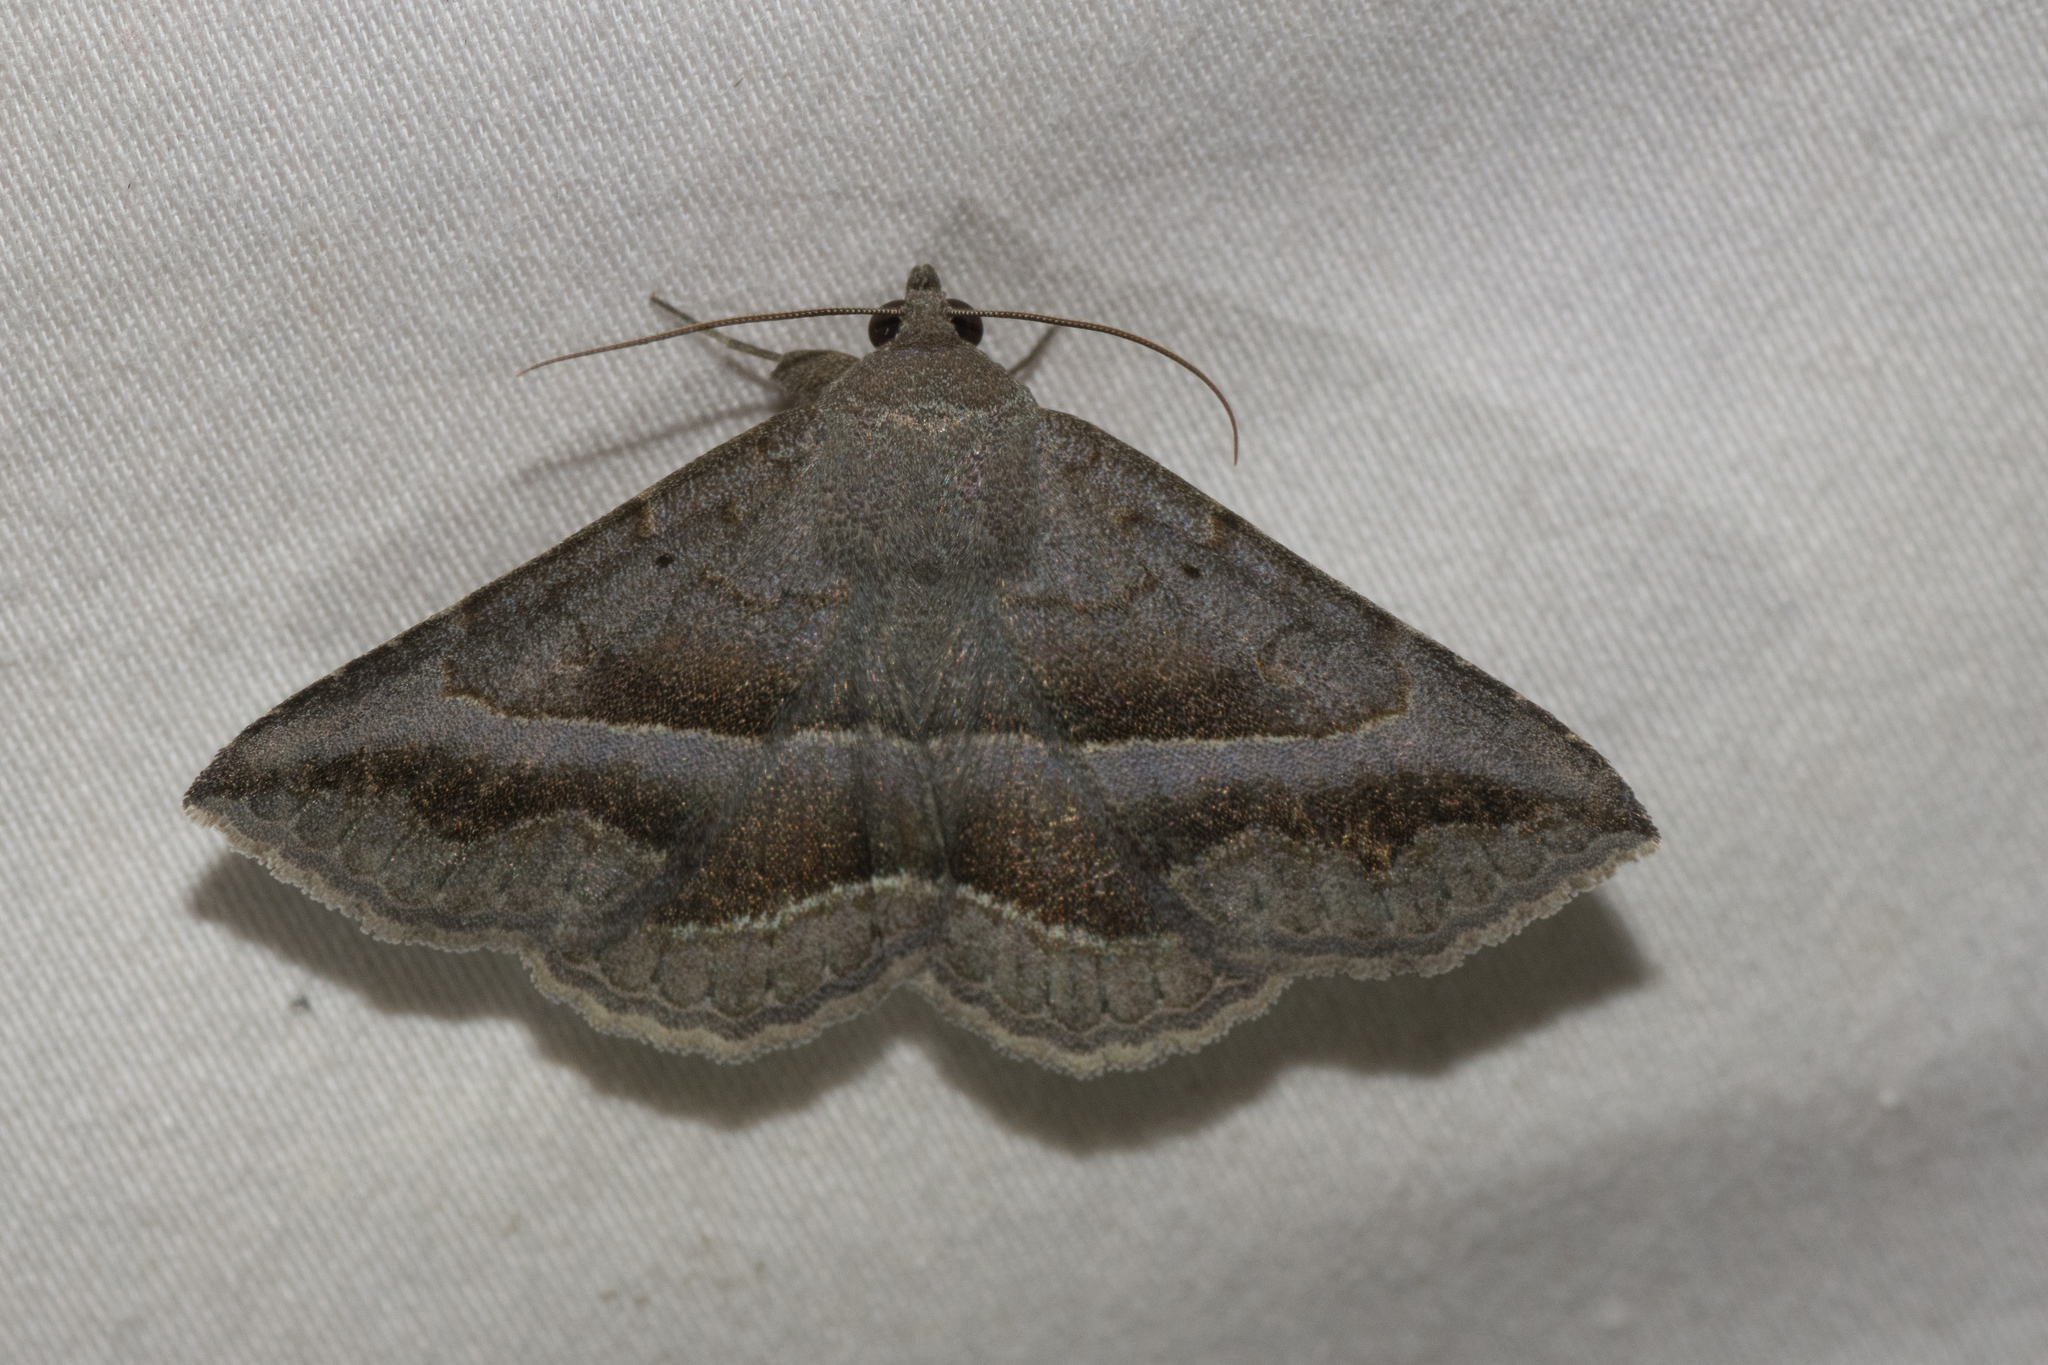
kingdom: Animalia
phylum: Arthropoda
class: Insecta
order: Lepidoptera
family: Erebidae
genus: Lesmone
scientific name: Lesmone griseipennis
